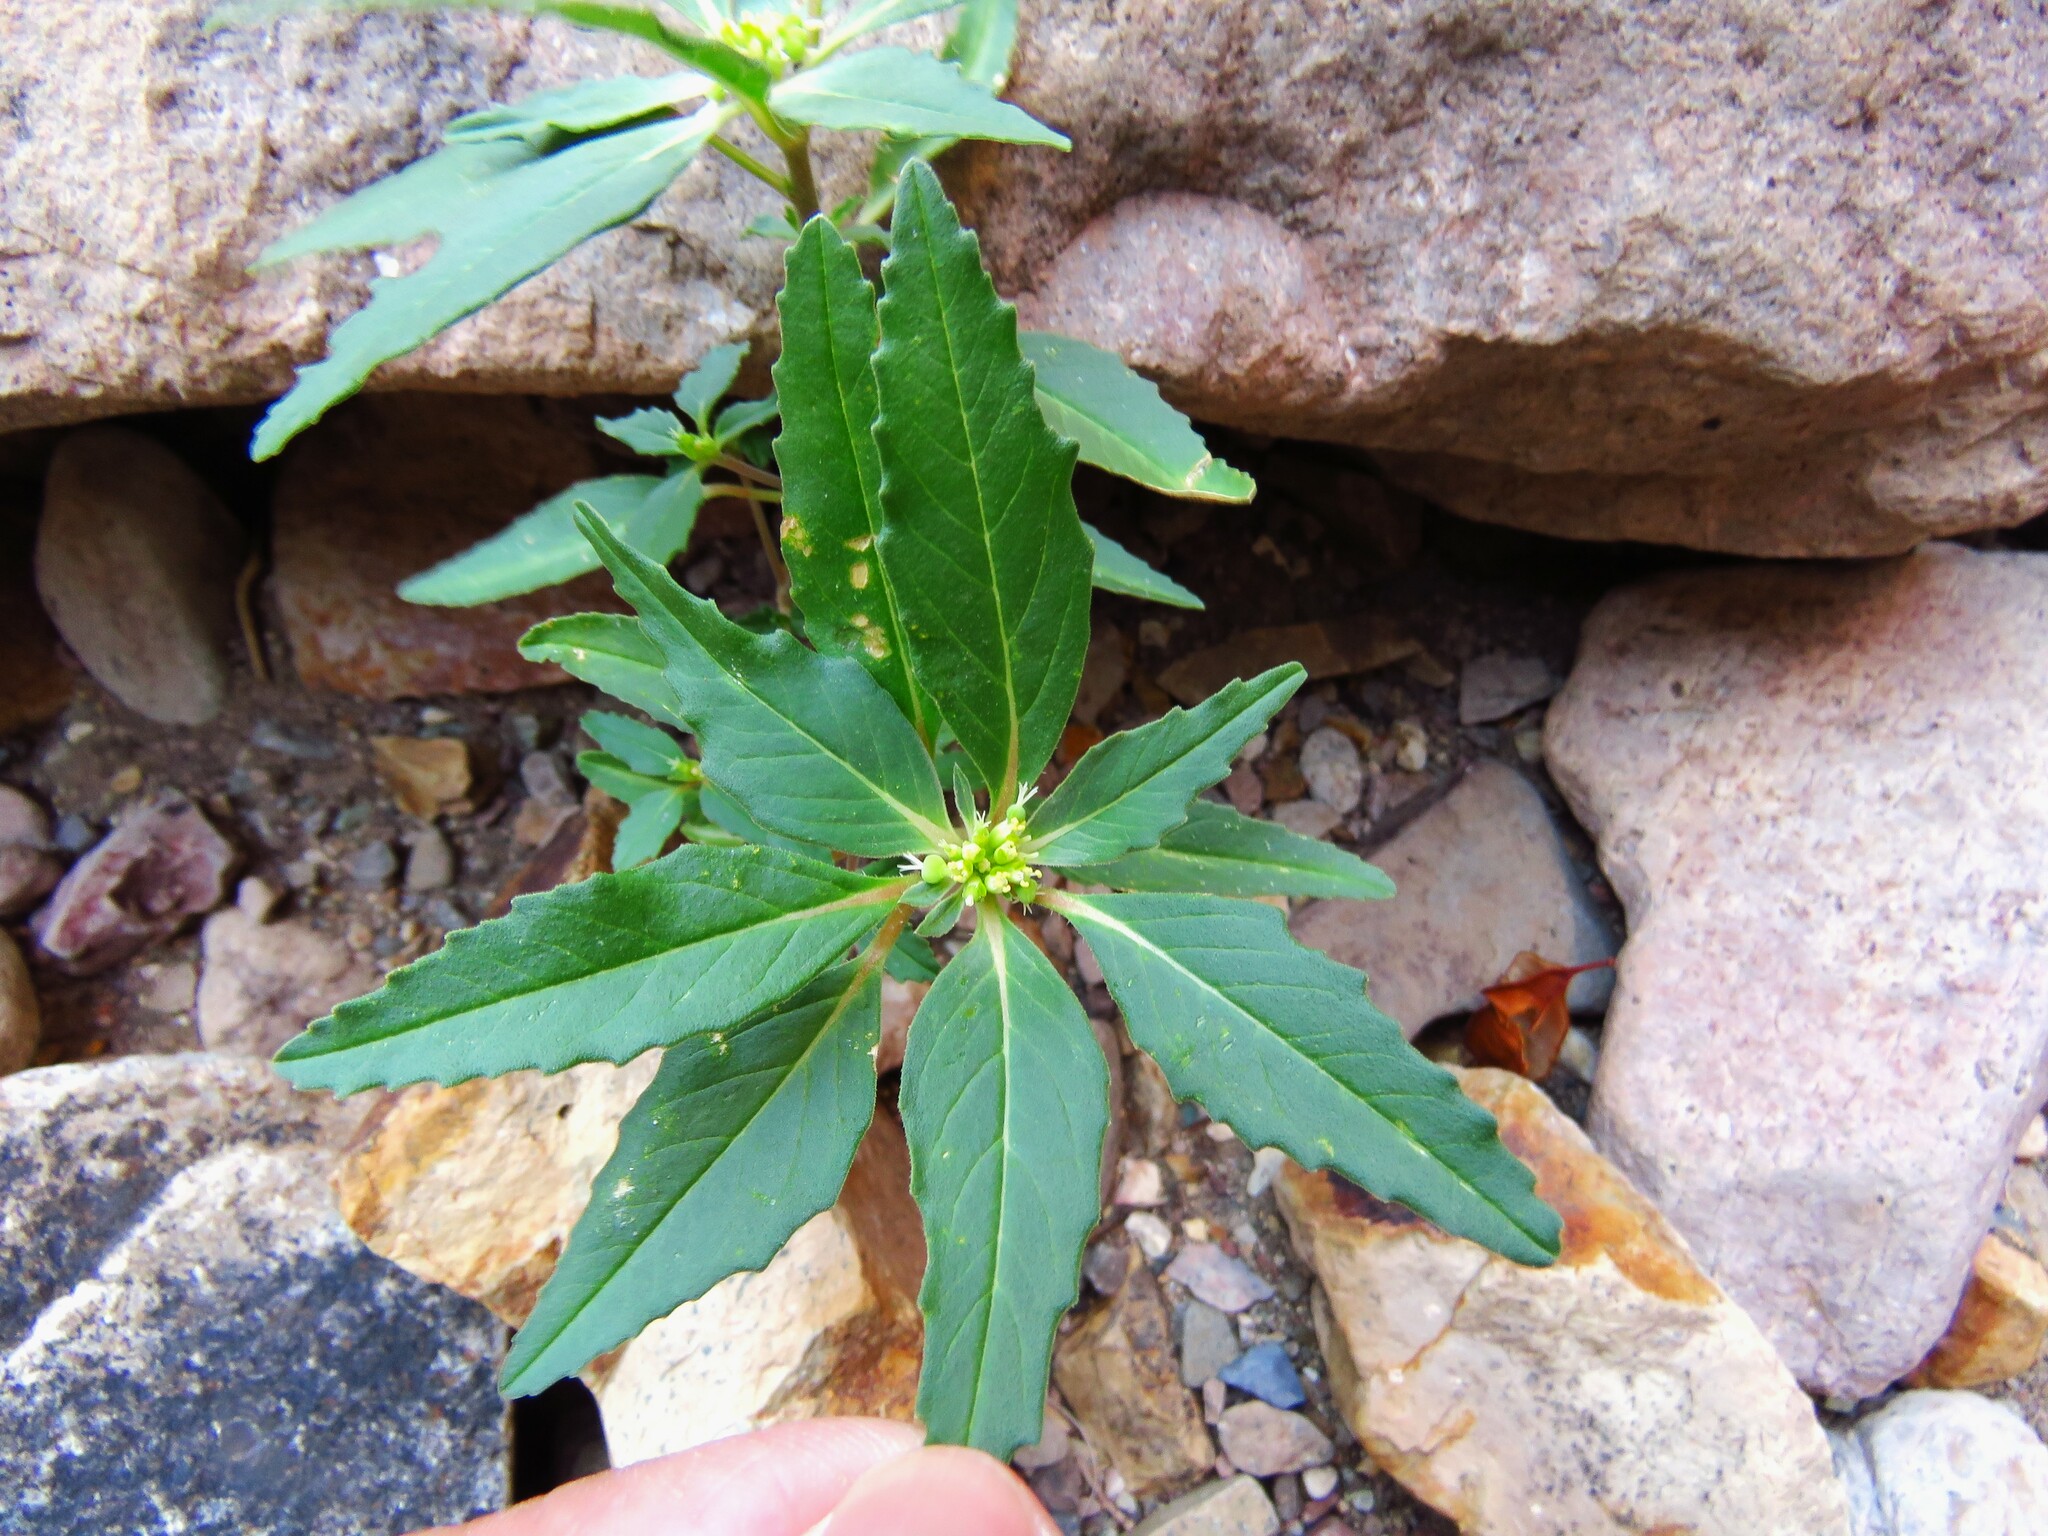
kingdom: Plantae
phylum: Tracheophyta
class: Magnoliopsida
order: Malpighiales
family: Euphorbiaceae
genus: Euphorbia
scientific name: Euphorbia dentata
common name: Dentate spurge
